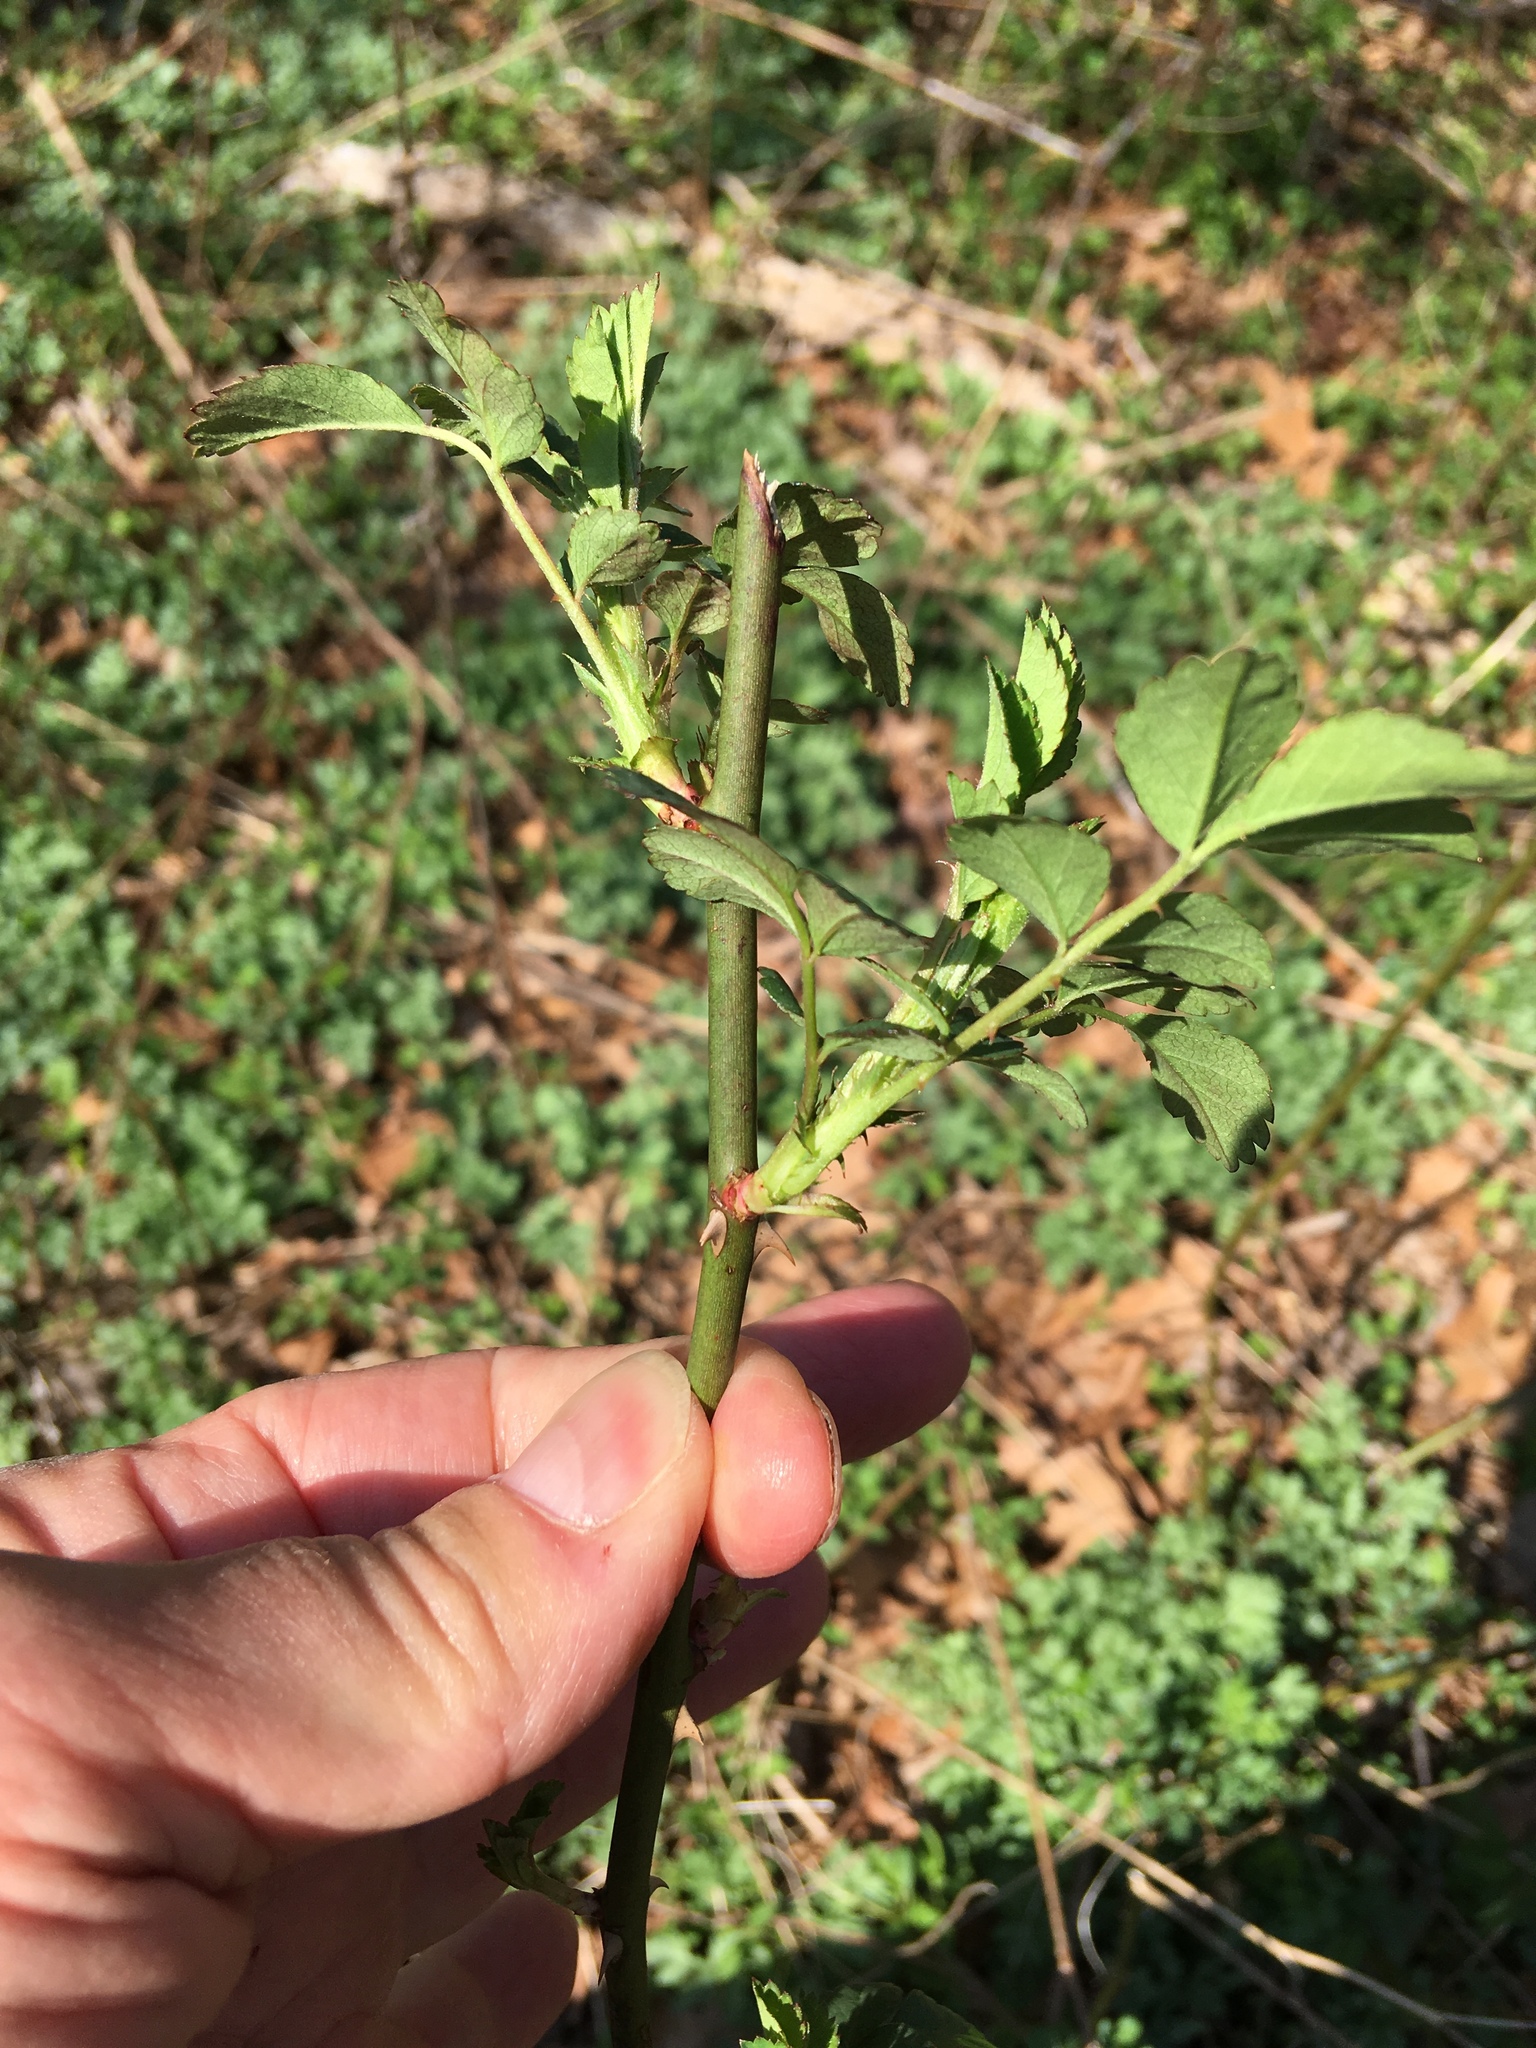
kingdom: Plantae
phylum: Tracheophyta
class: Magnoliopsida
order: Rosales
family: Rosaceae
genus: Rosa
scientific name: Rosa multiflora
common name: Multiflora rose
